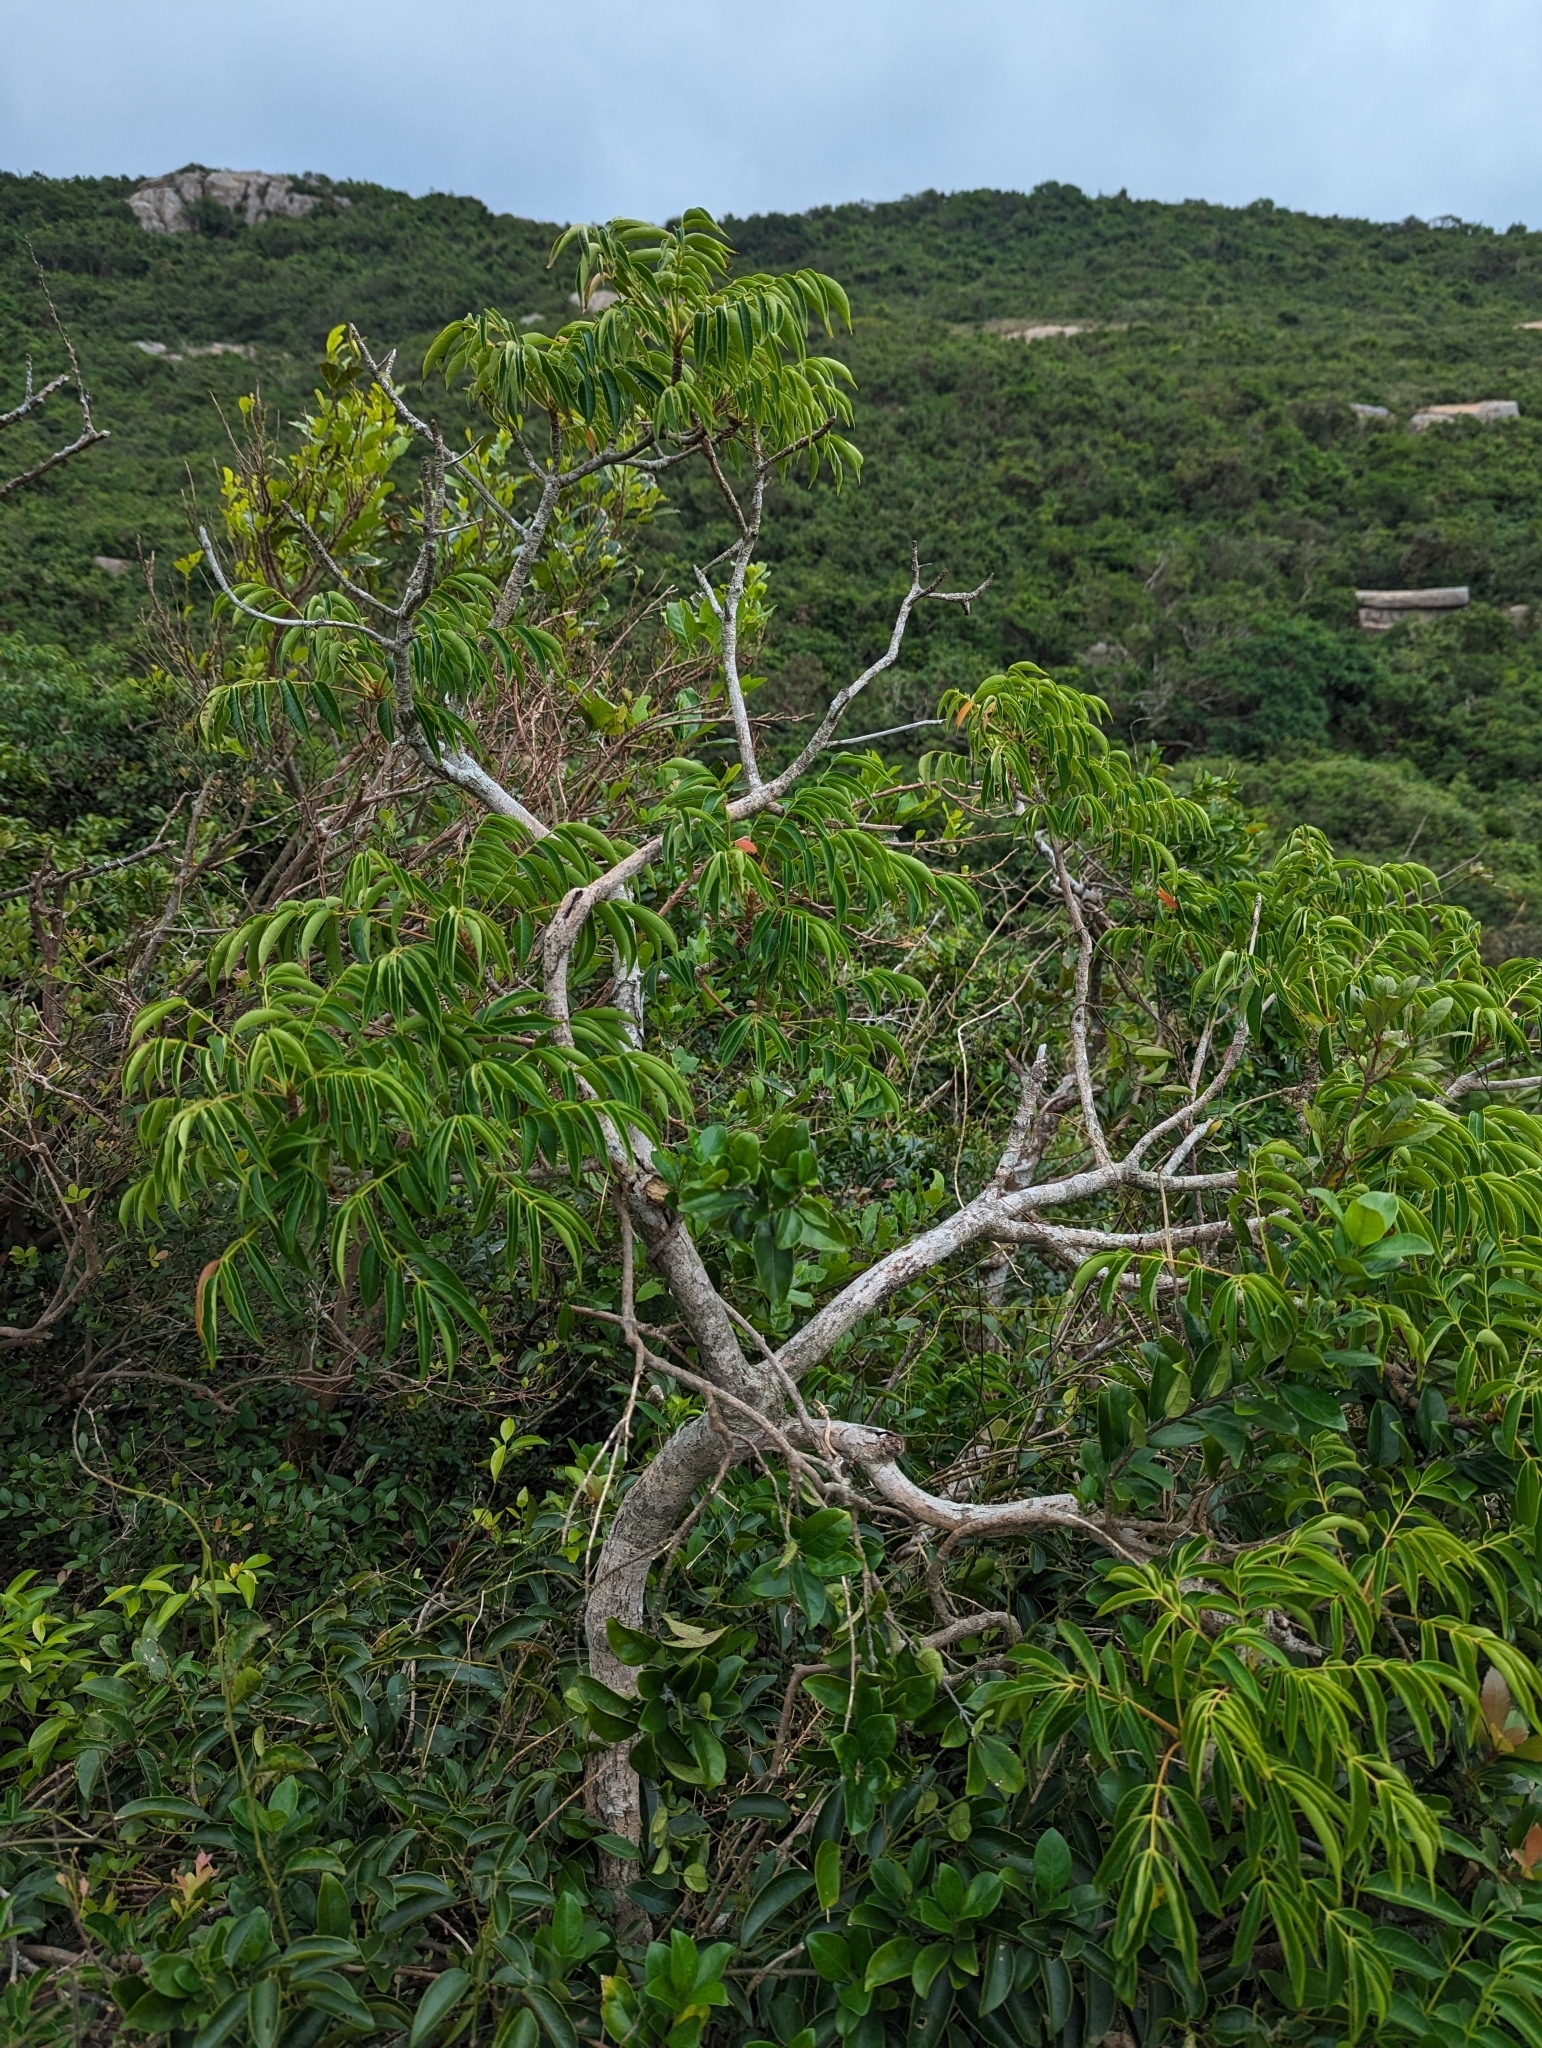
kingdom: Plantae
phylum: Tracheophyta
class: Magnoliopsida
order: Sapindales
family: Anacardiaceae
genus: Toxicodendron
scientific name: Toxicodendron succedaneum
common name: Wax tree
